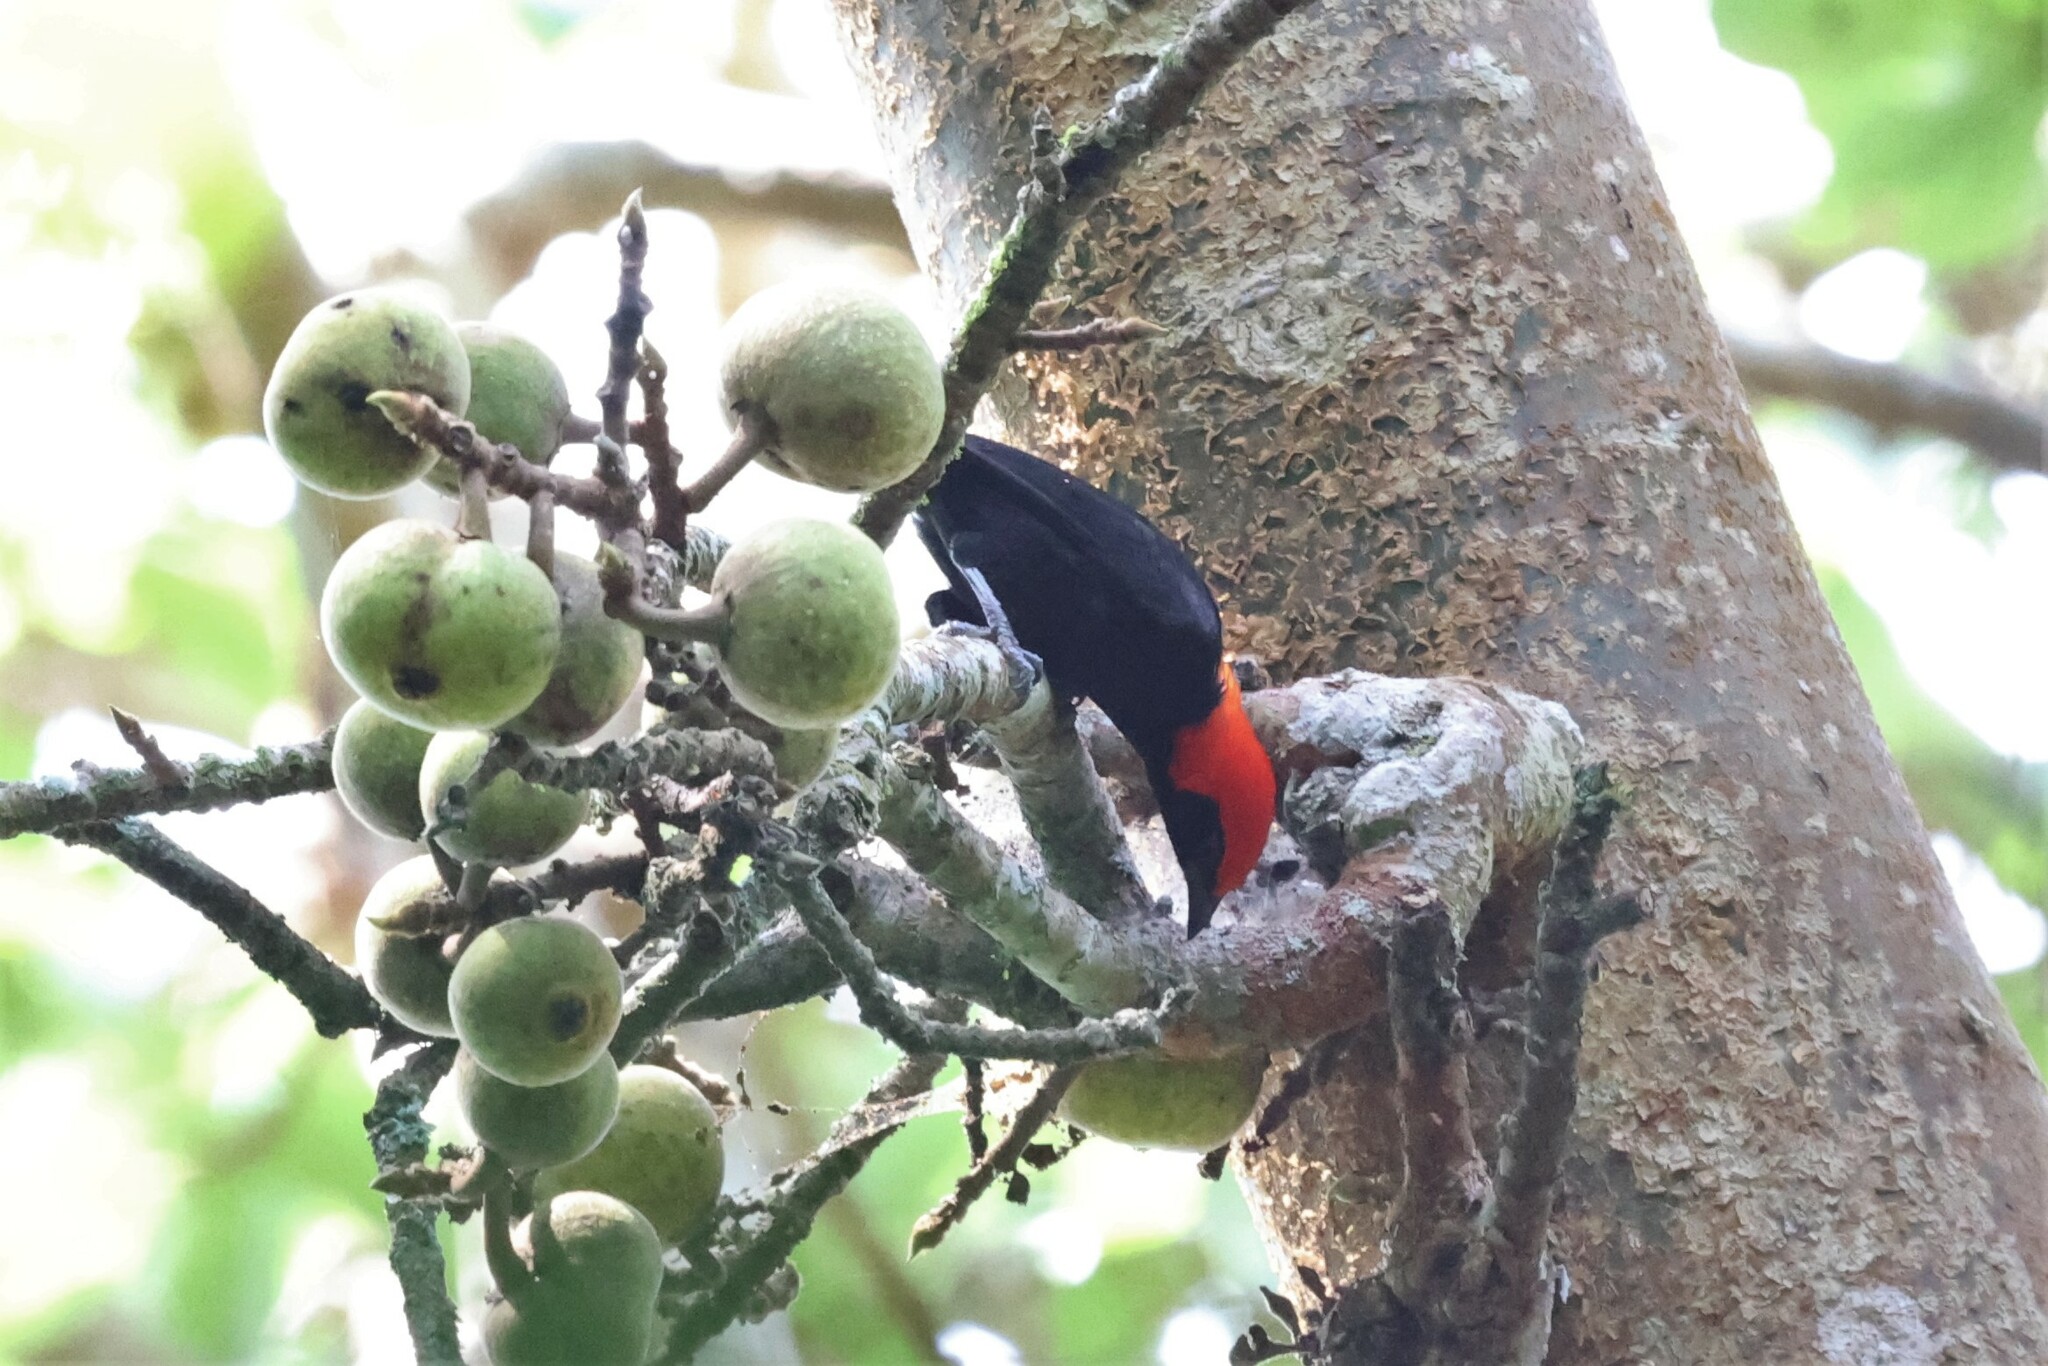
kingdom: Animalia
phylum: Chordata
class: Aves
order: Passeriformes
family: Ploceidae
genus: Malimbus
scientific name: Malimbus rubricollis
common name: Red-headed malimbe
